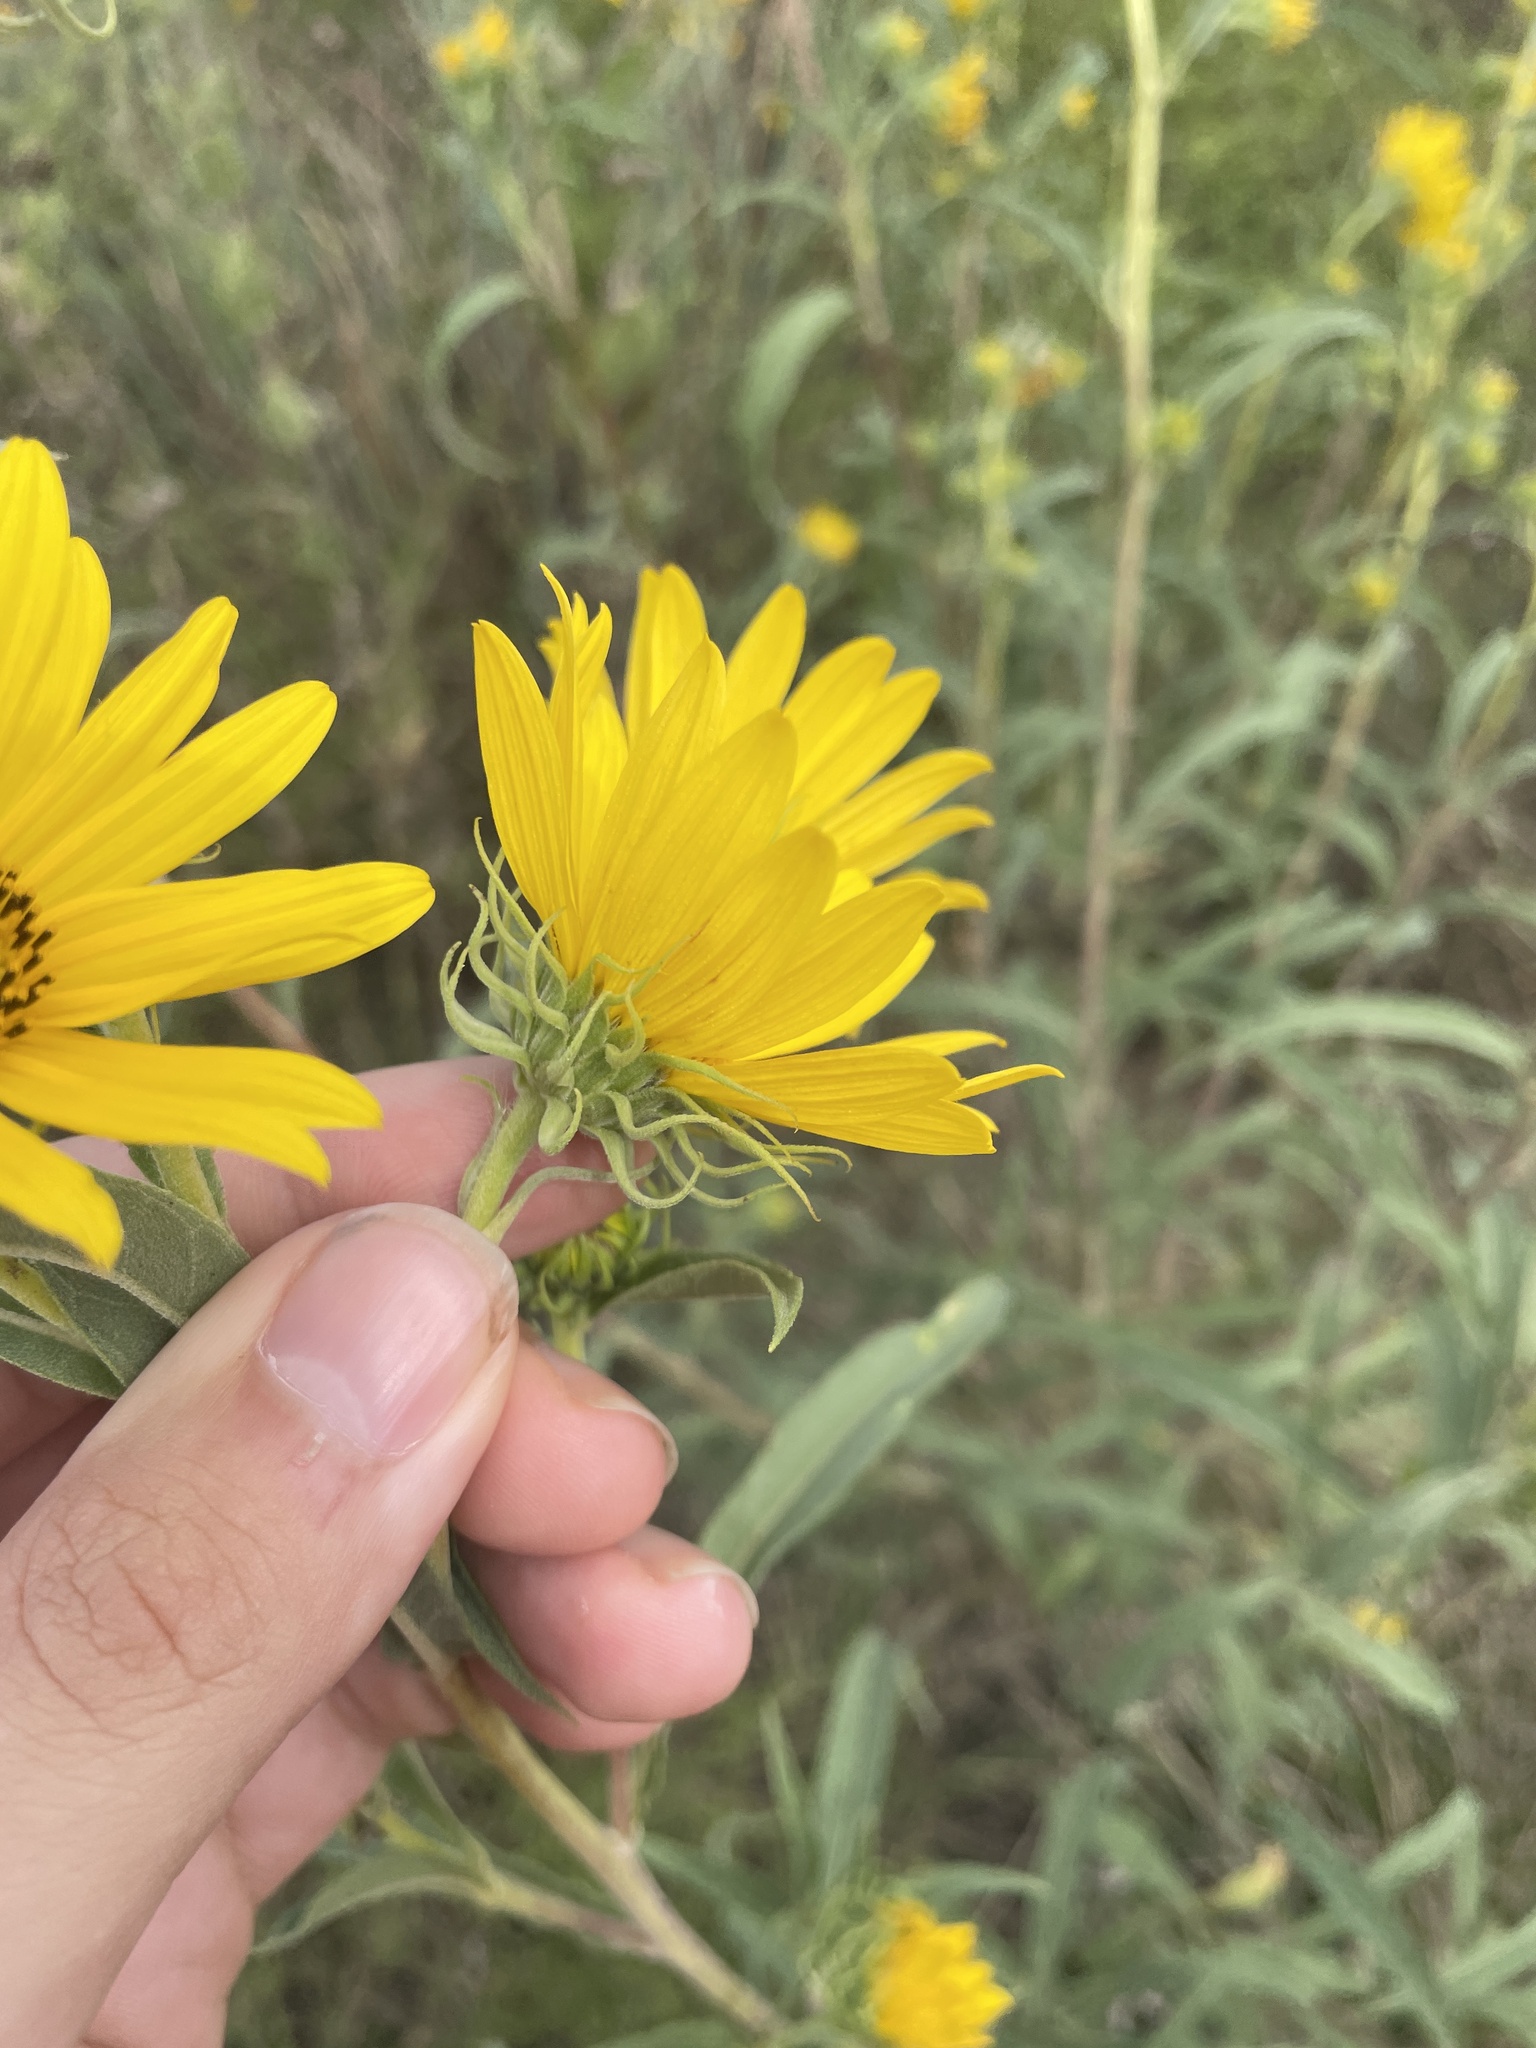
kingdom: Plantae
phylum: Tracheophyta
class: Magnoliopsida
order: Asterales
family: Asteraceae
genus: Helianthus
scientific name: Helianthus maximiliani
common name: Maximilian's sunflower
